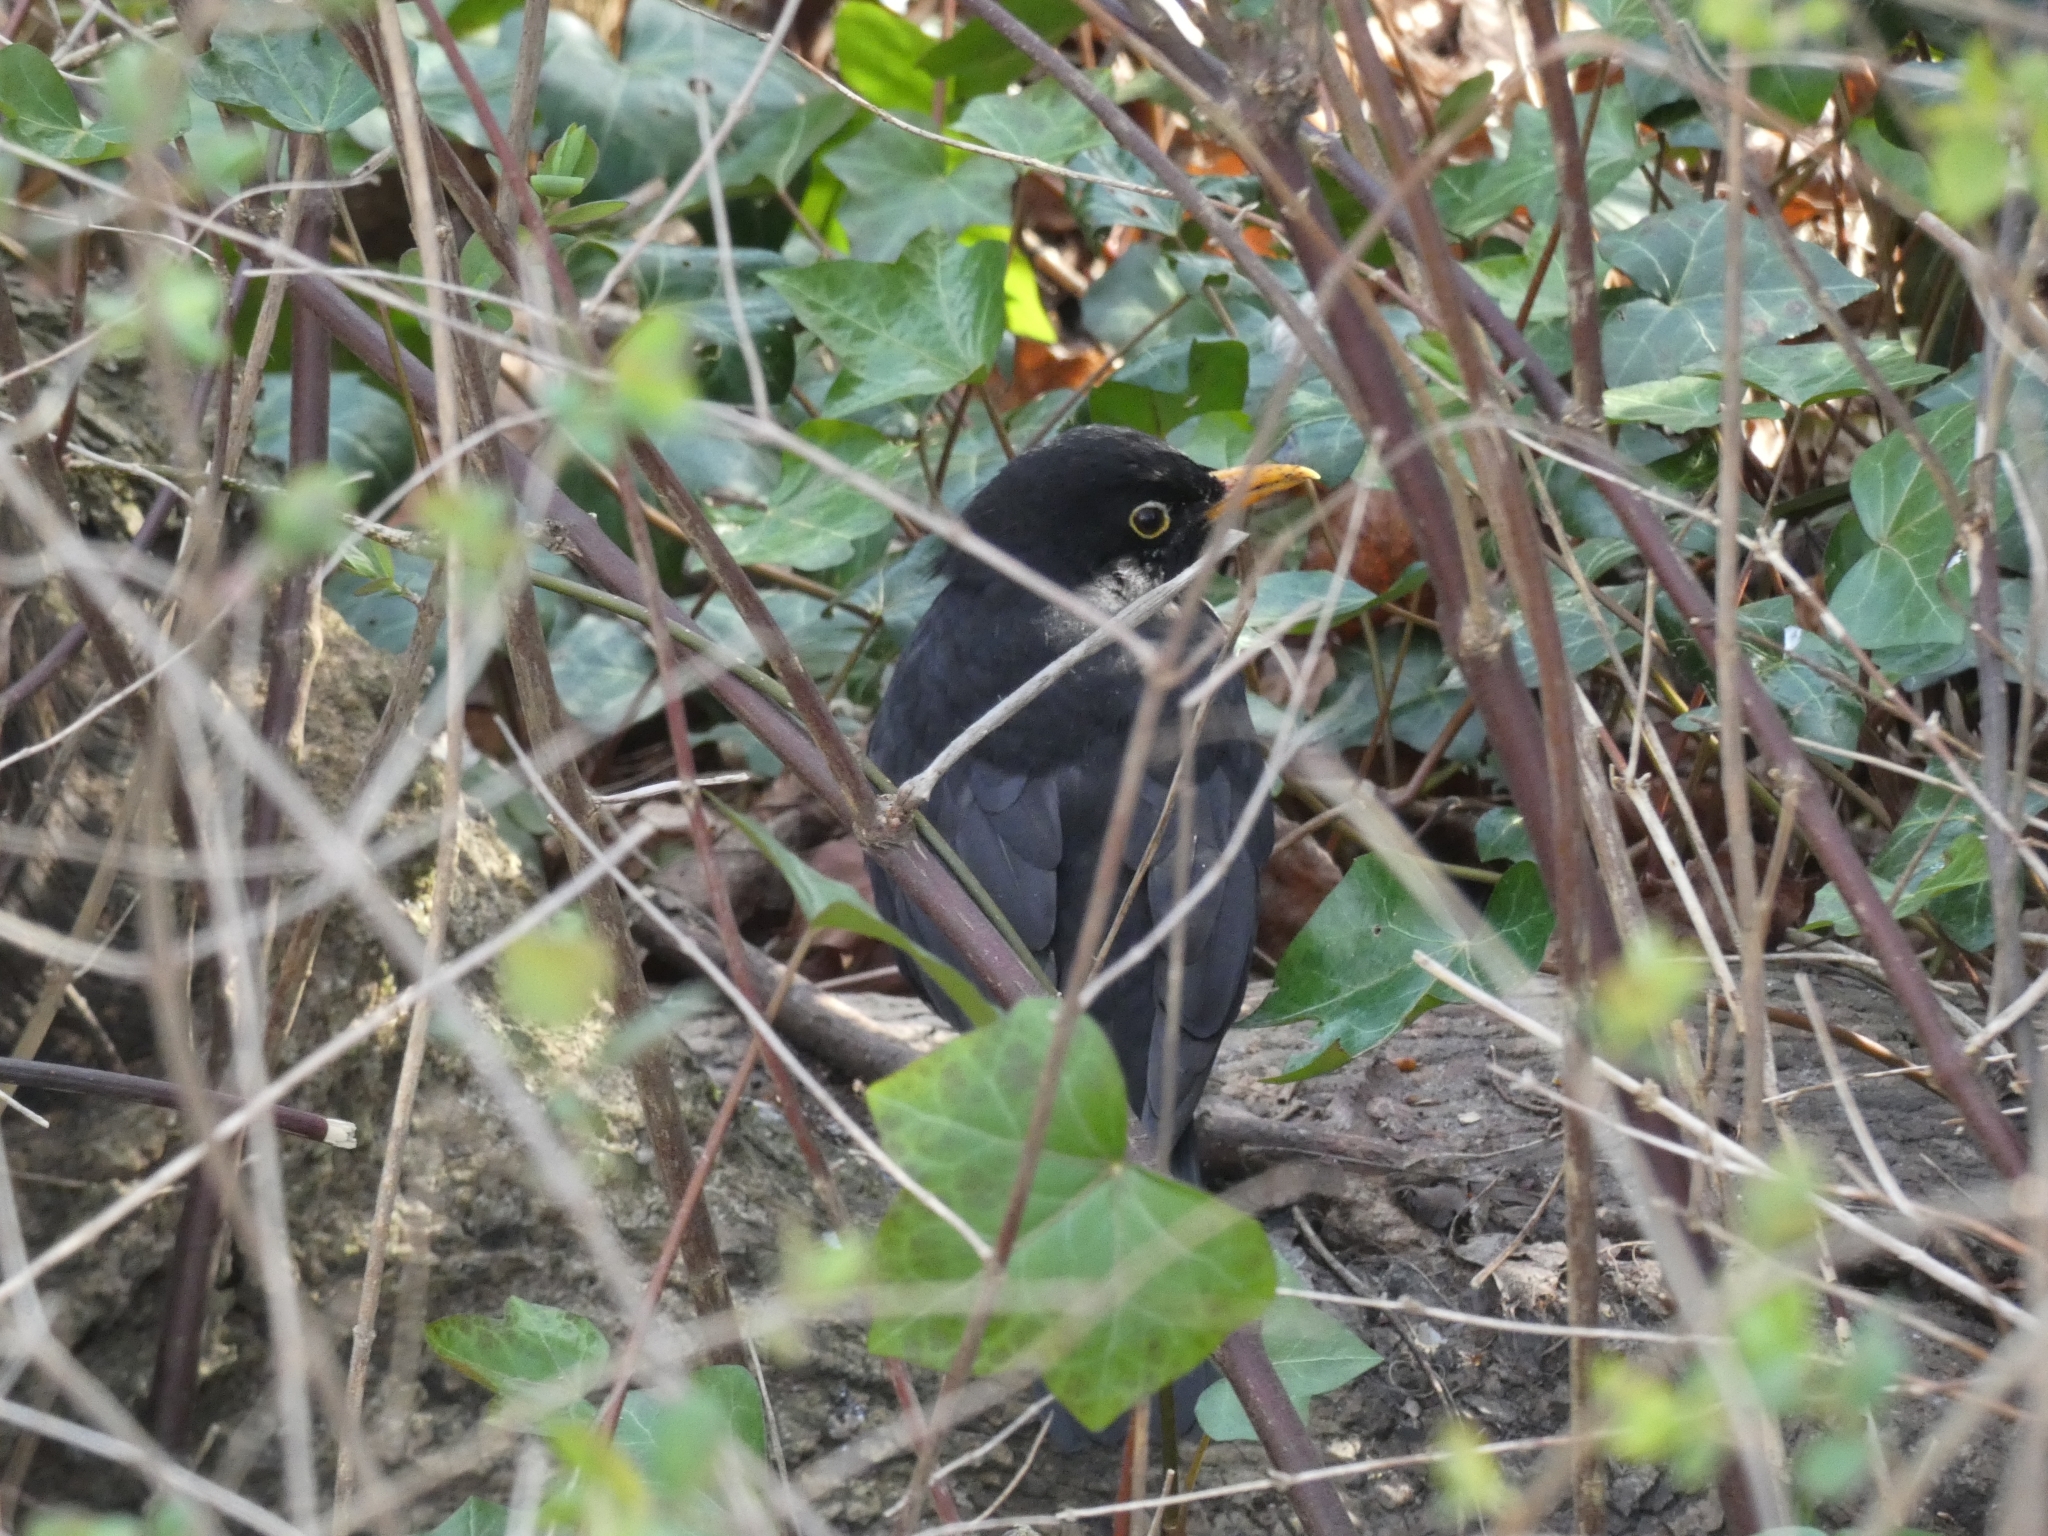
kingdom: Animalia
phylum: Chordata
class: Aves
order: Passeriformes
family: Turdidae
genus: Turdus
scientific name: Turdus merula
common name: Common blackbird
